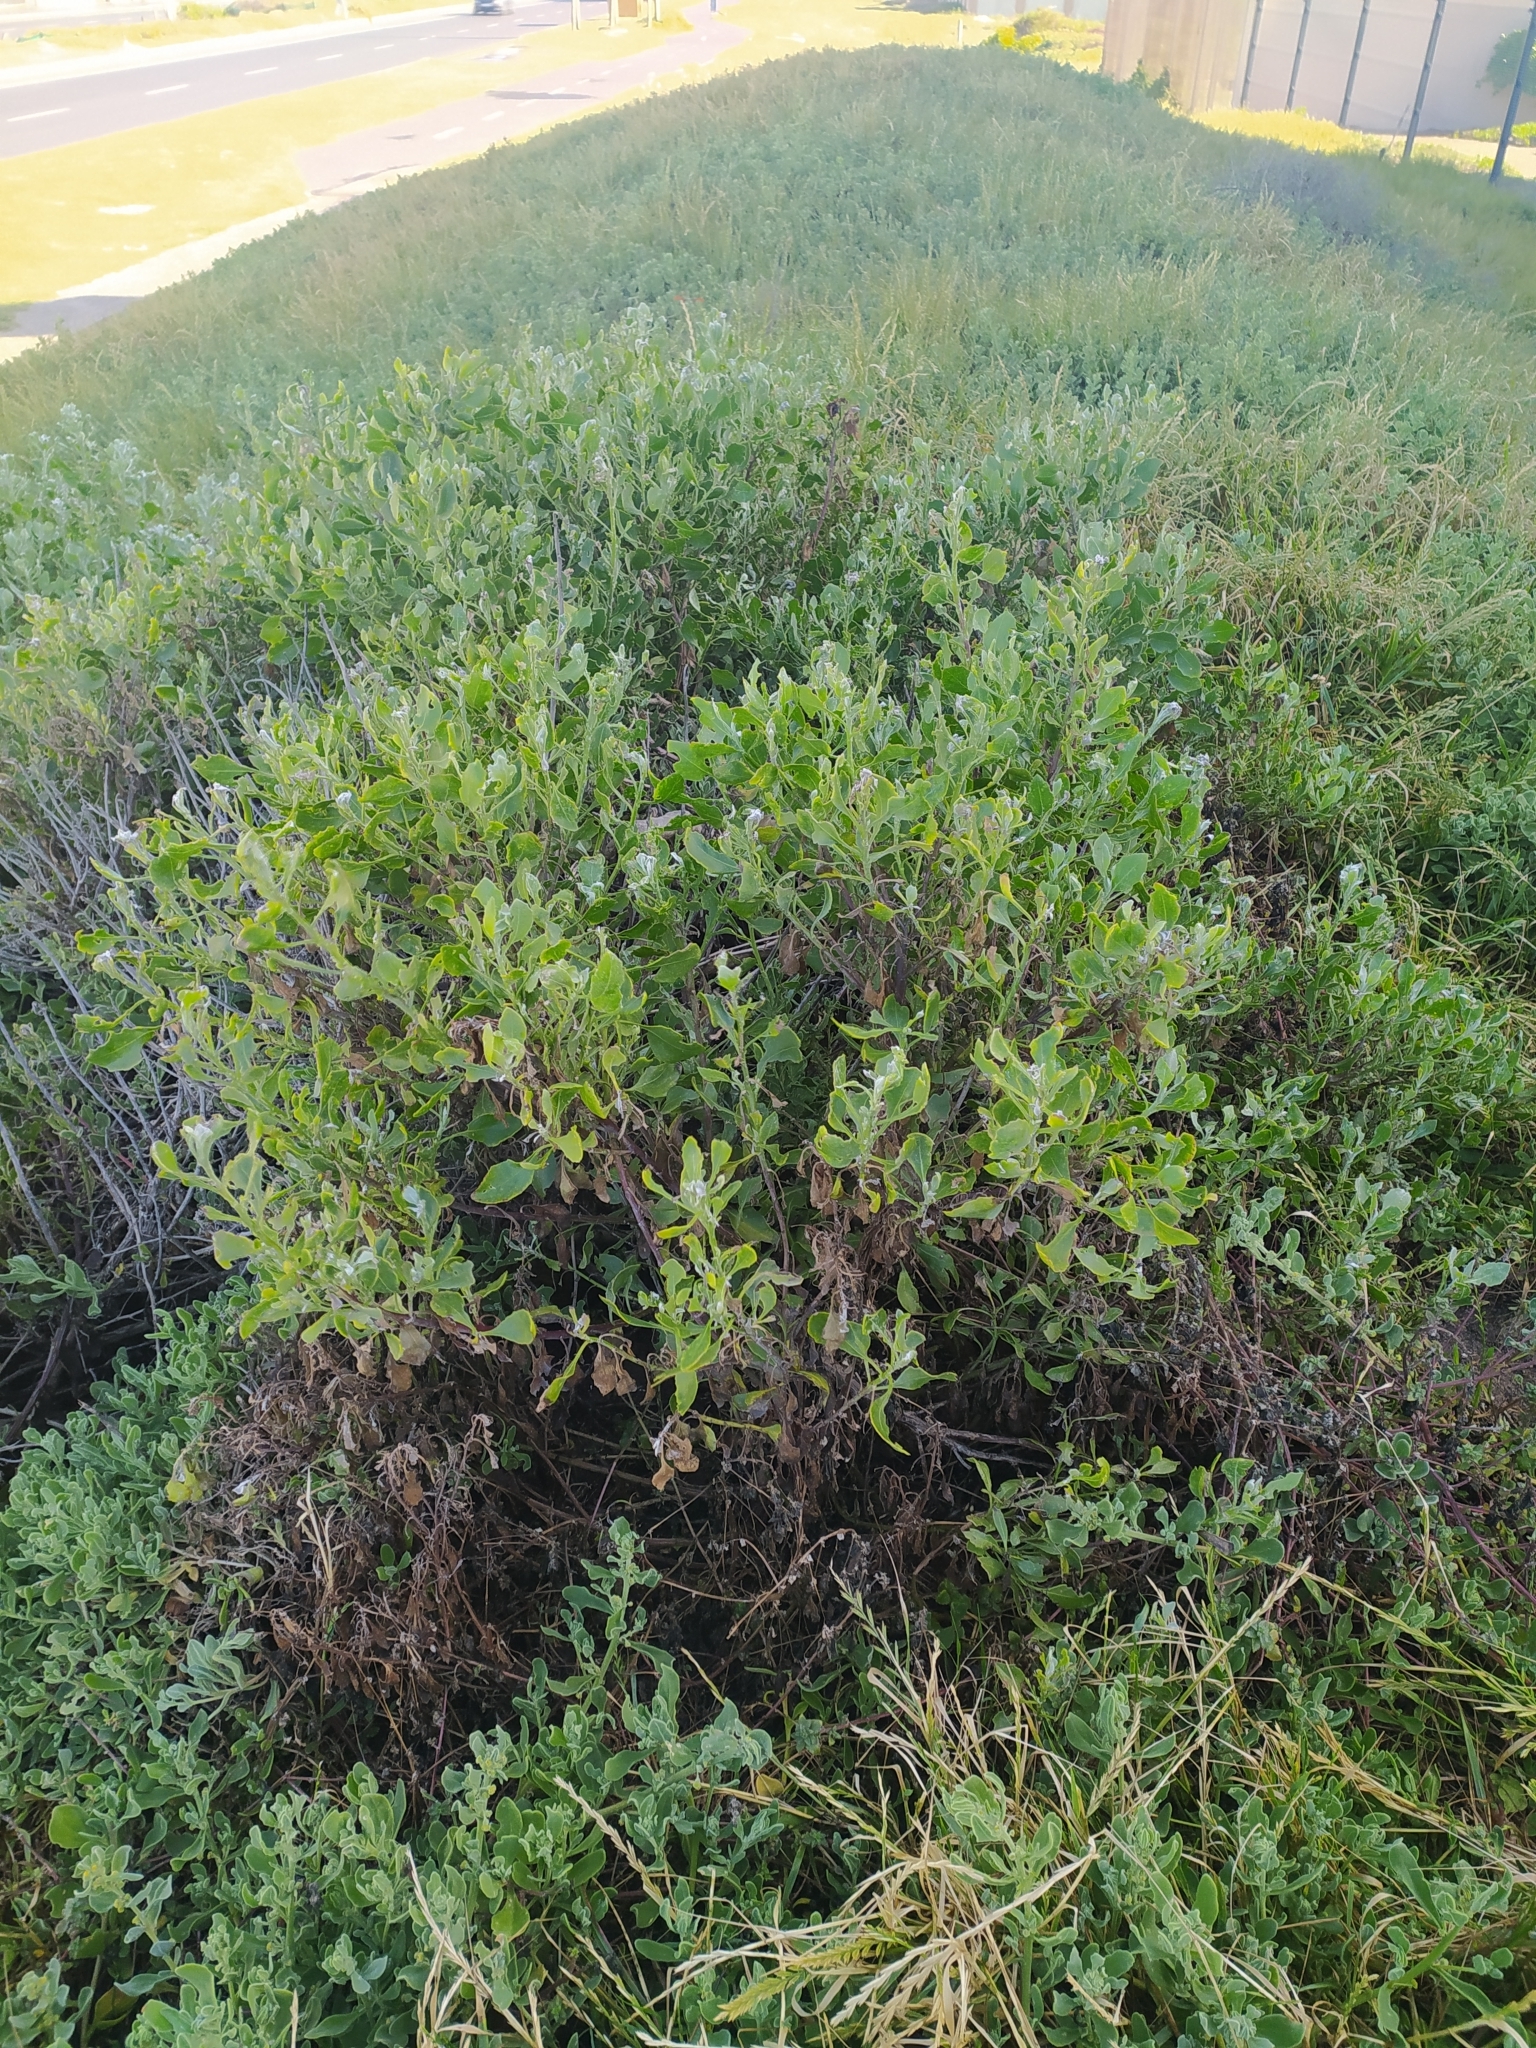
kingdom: Plantae
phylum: Tracheophyta
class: Magnoliopsida
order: Asterales
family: Asteraceae
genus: Osteospermum
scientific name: Osteospermum moniliferum
